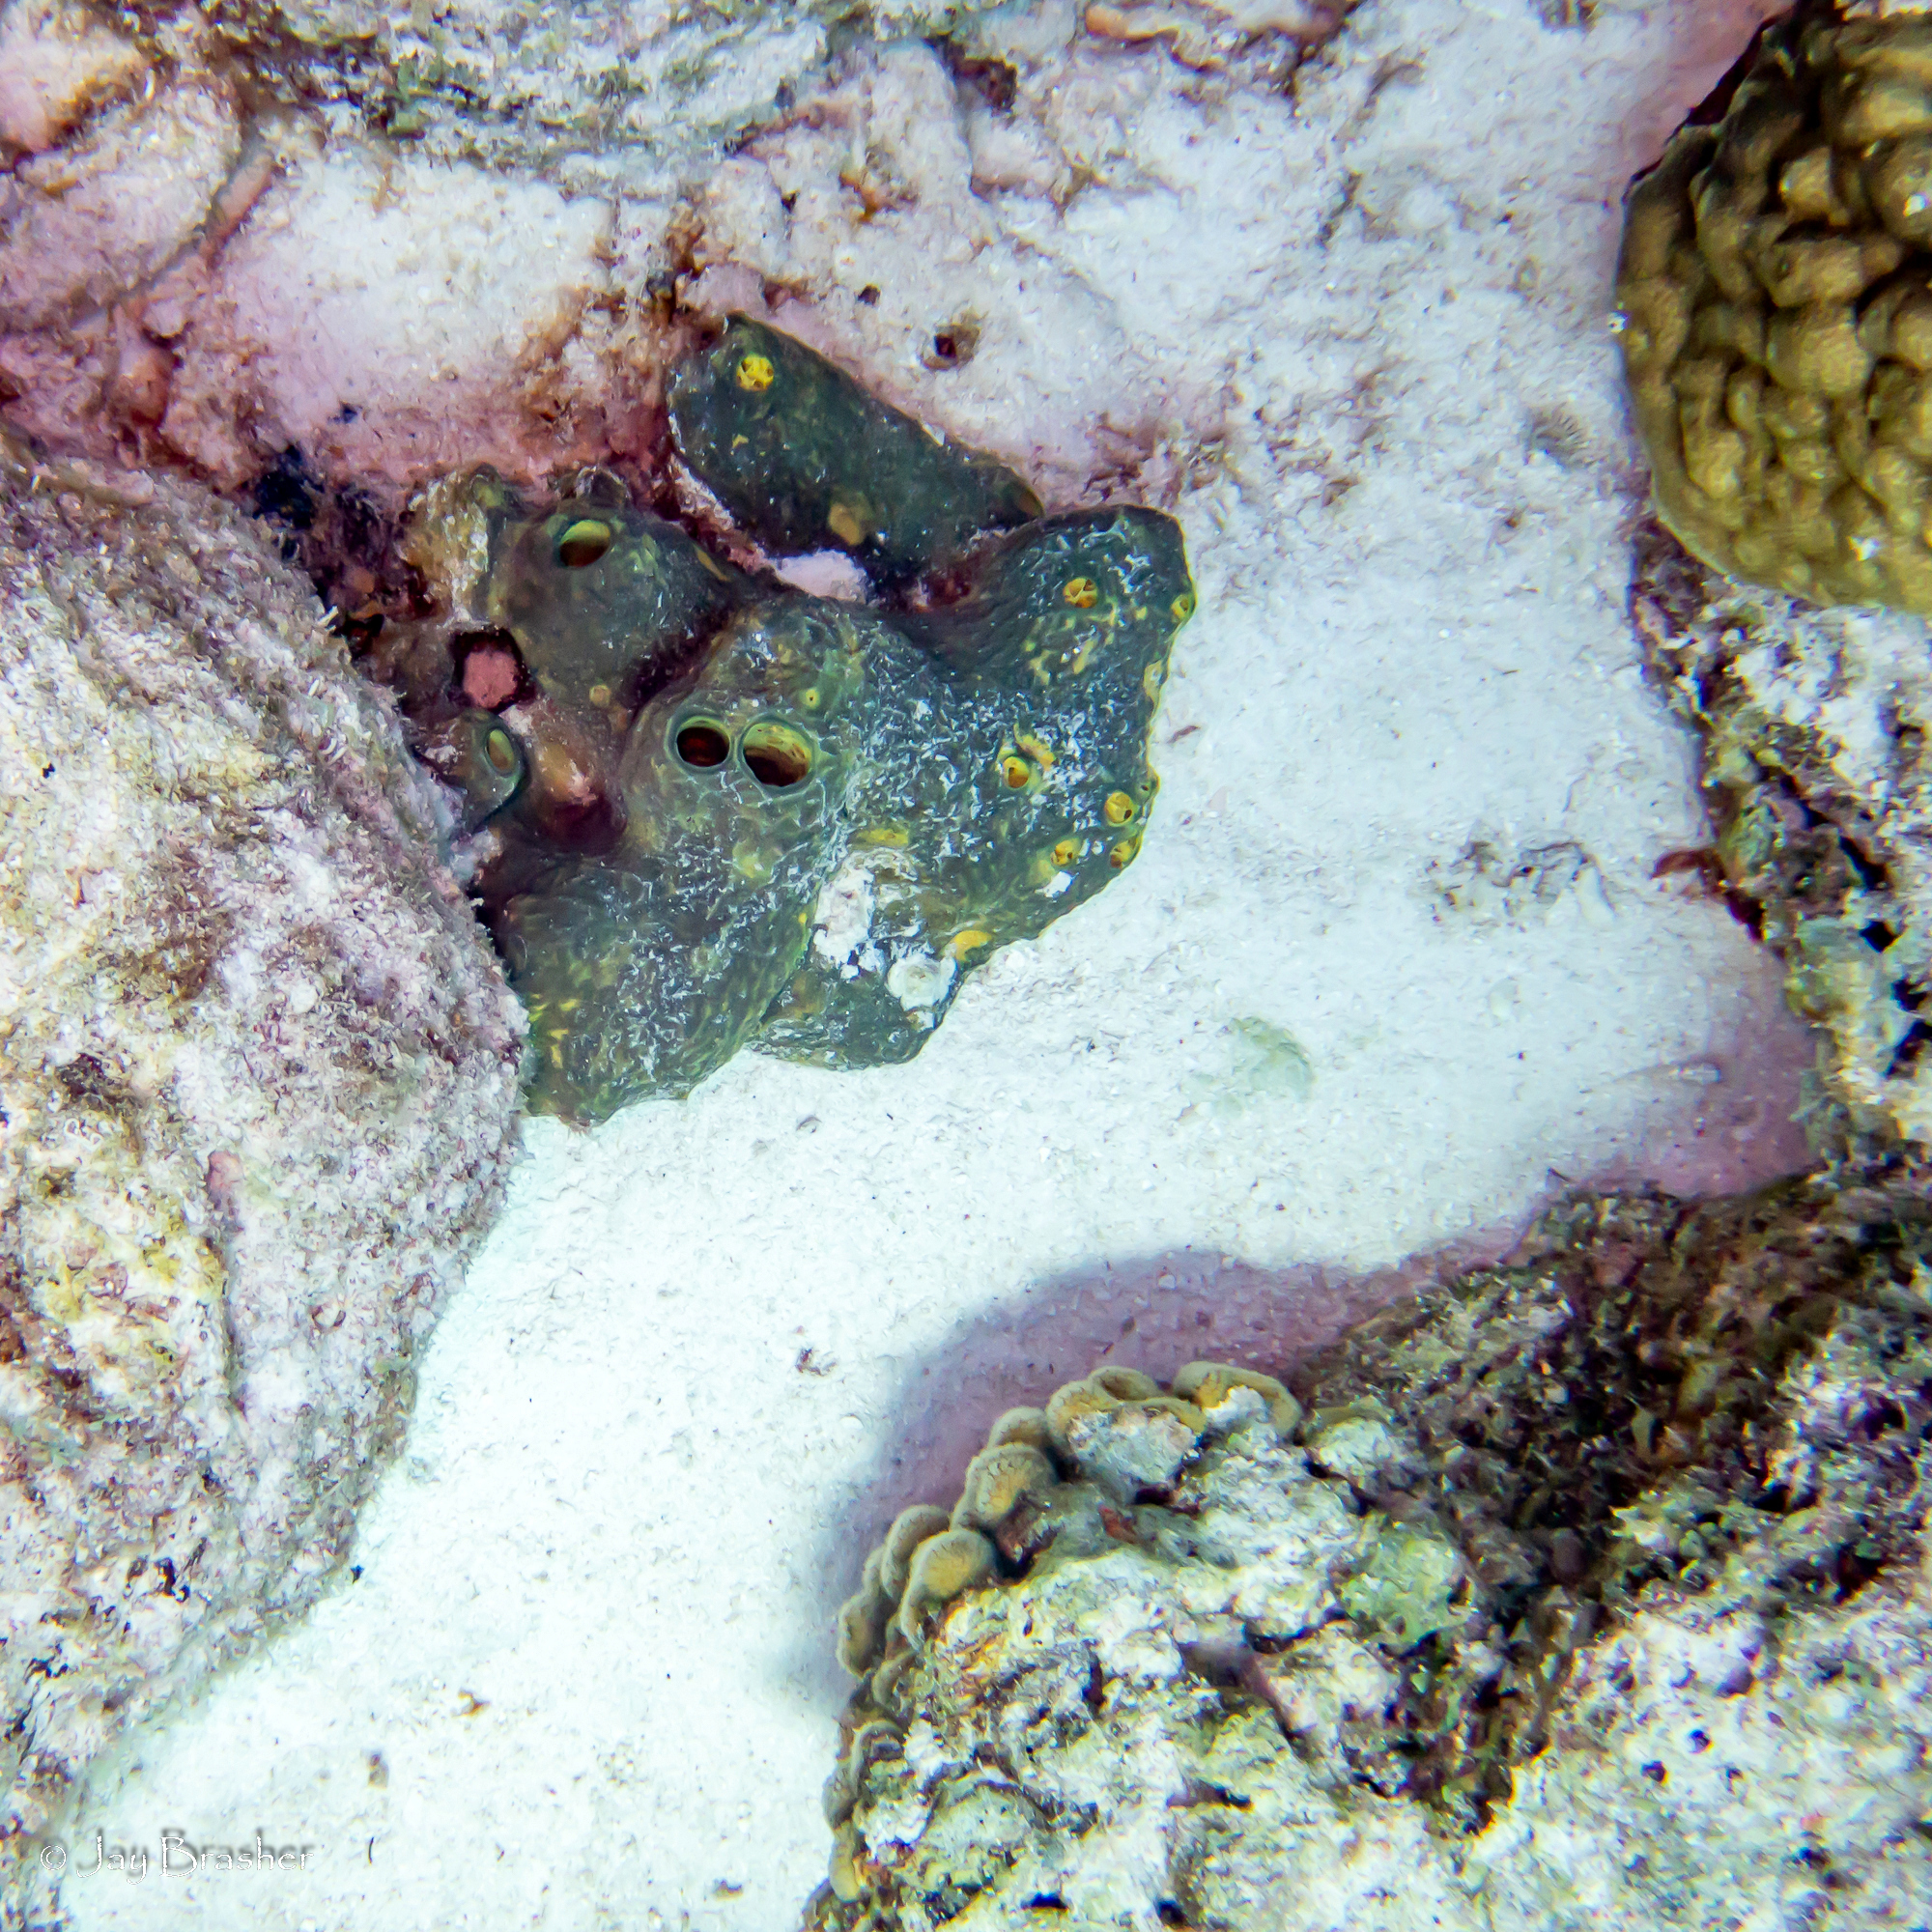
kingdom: Animalia
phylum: Cnidaria
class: Anthozoa
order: Scleractinia
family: Poritidae
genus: Porites
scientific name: Porites astreoides
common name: Mustard hill coral
